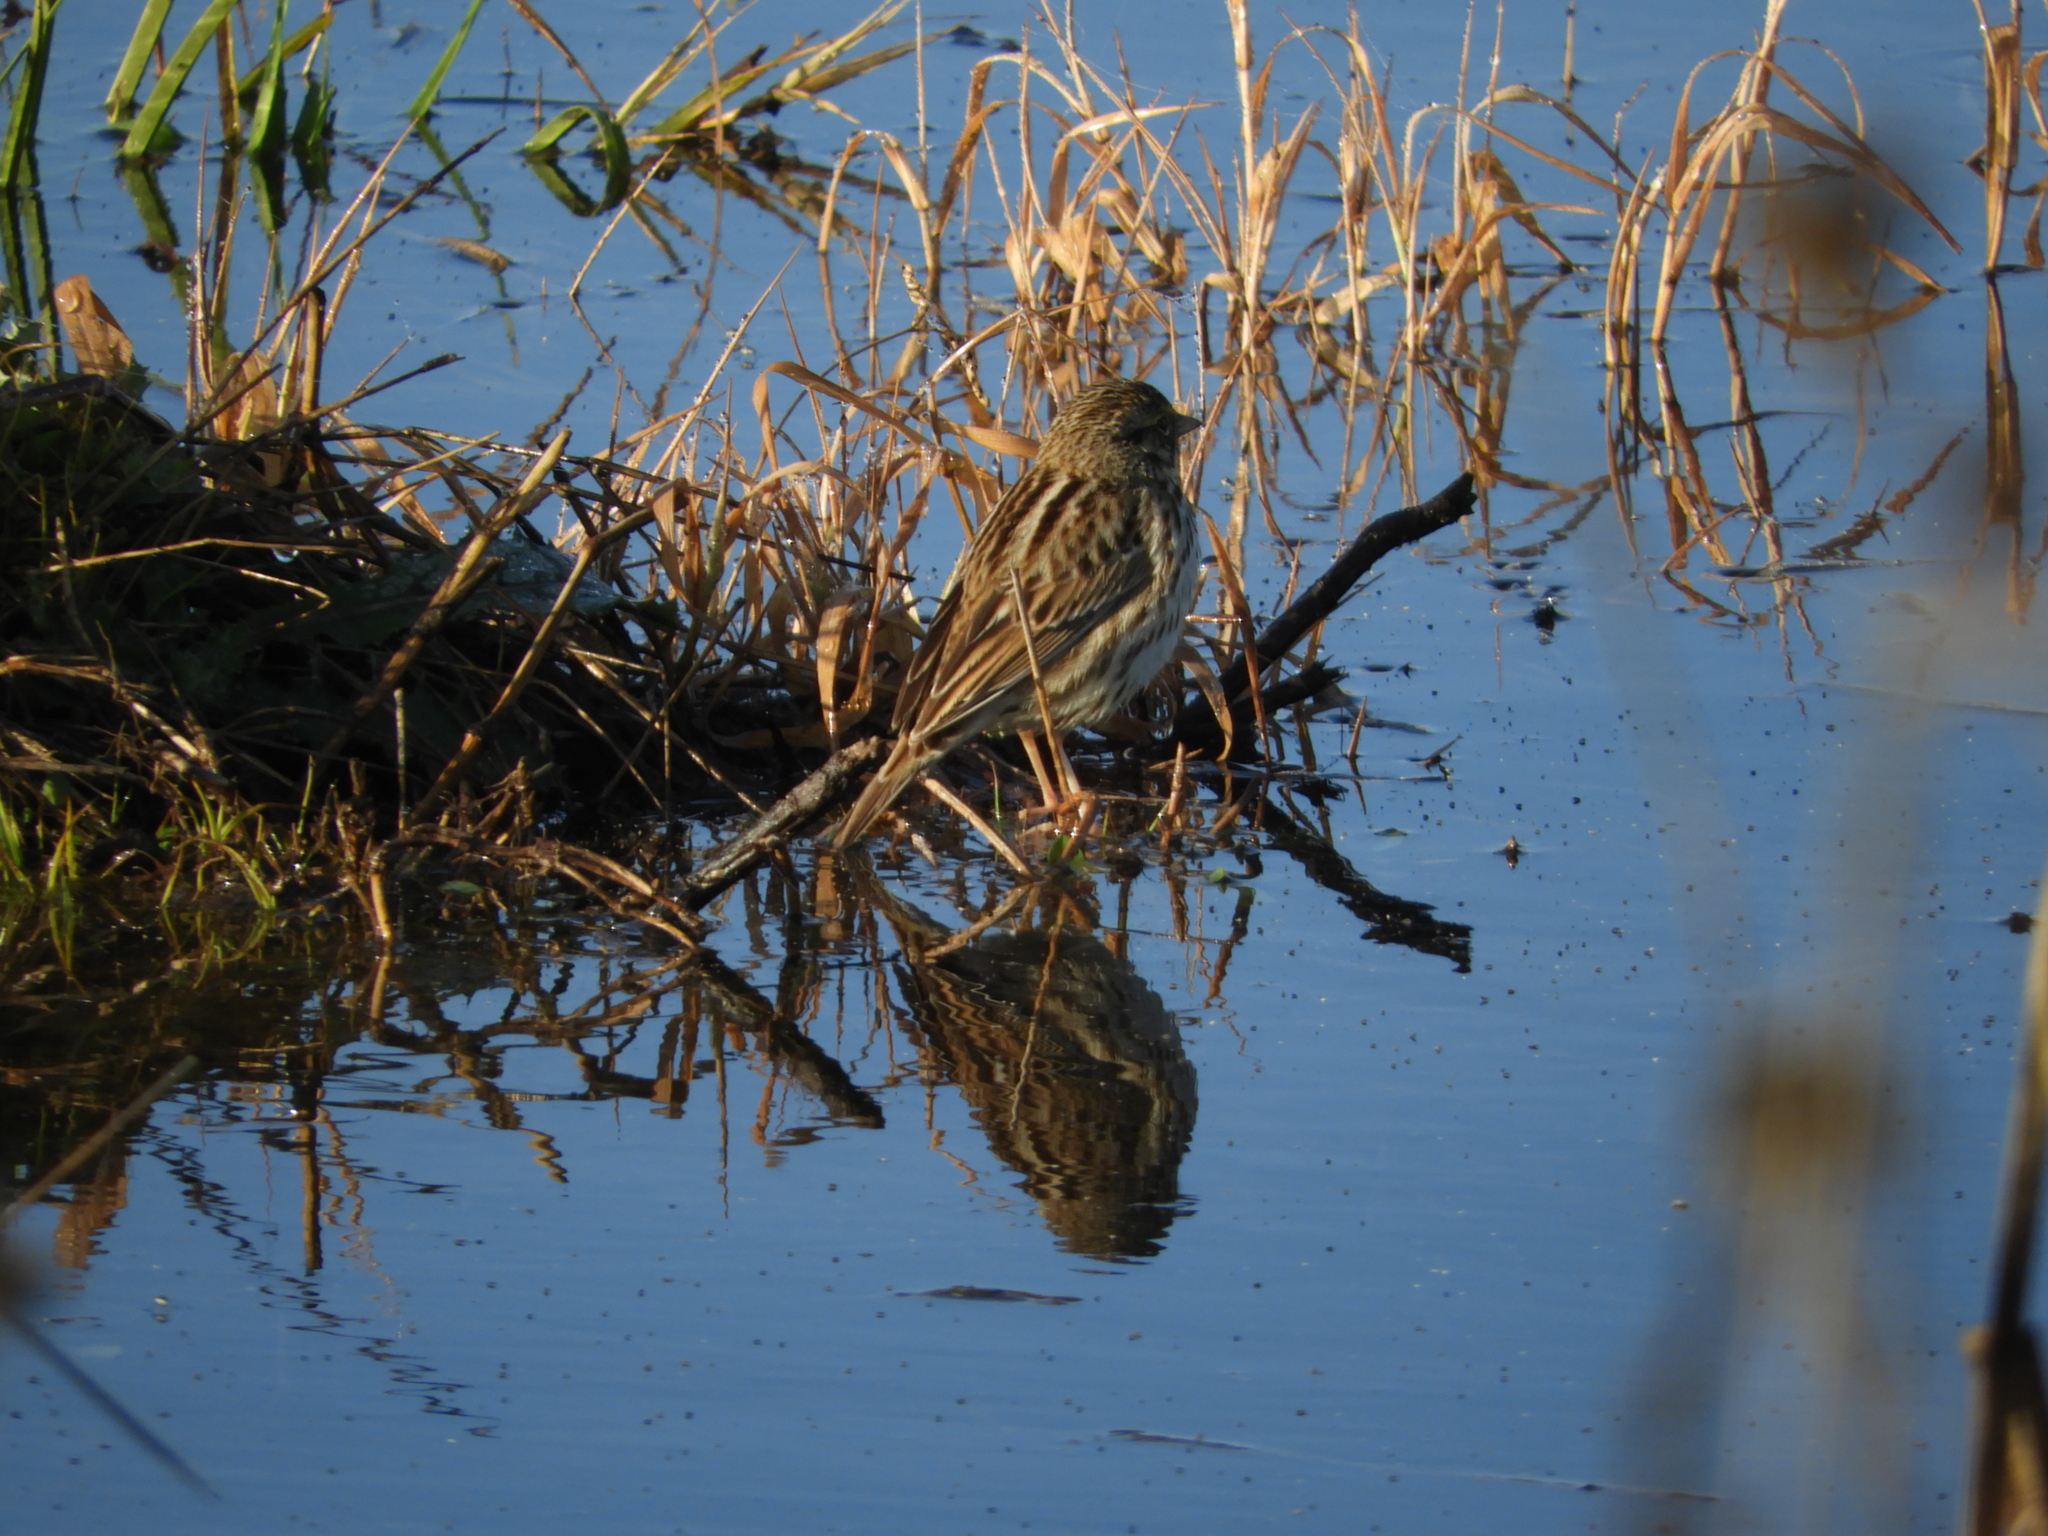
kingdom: Animalia
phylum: Chordata
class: Aves
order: Passeriformes
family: Passerellidae
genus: Passerculus
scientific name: Passerculus sandwichensis
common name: Savannah sparrow
